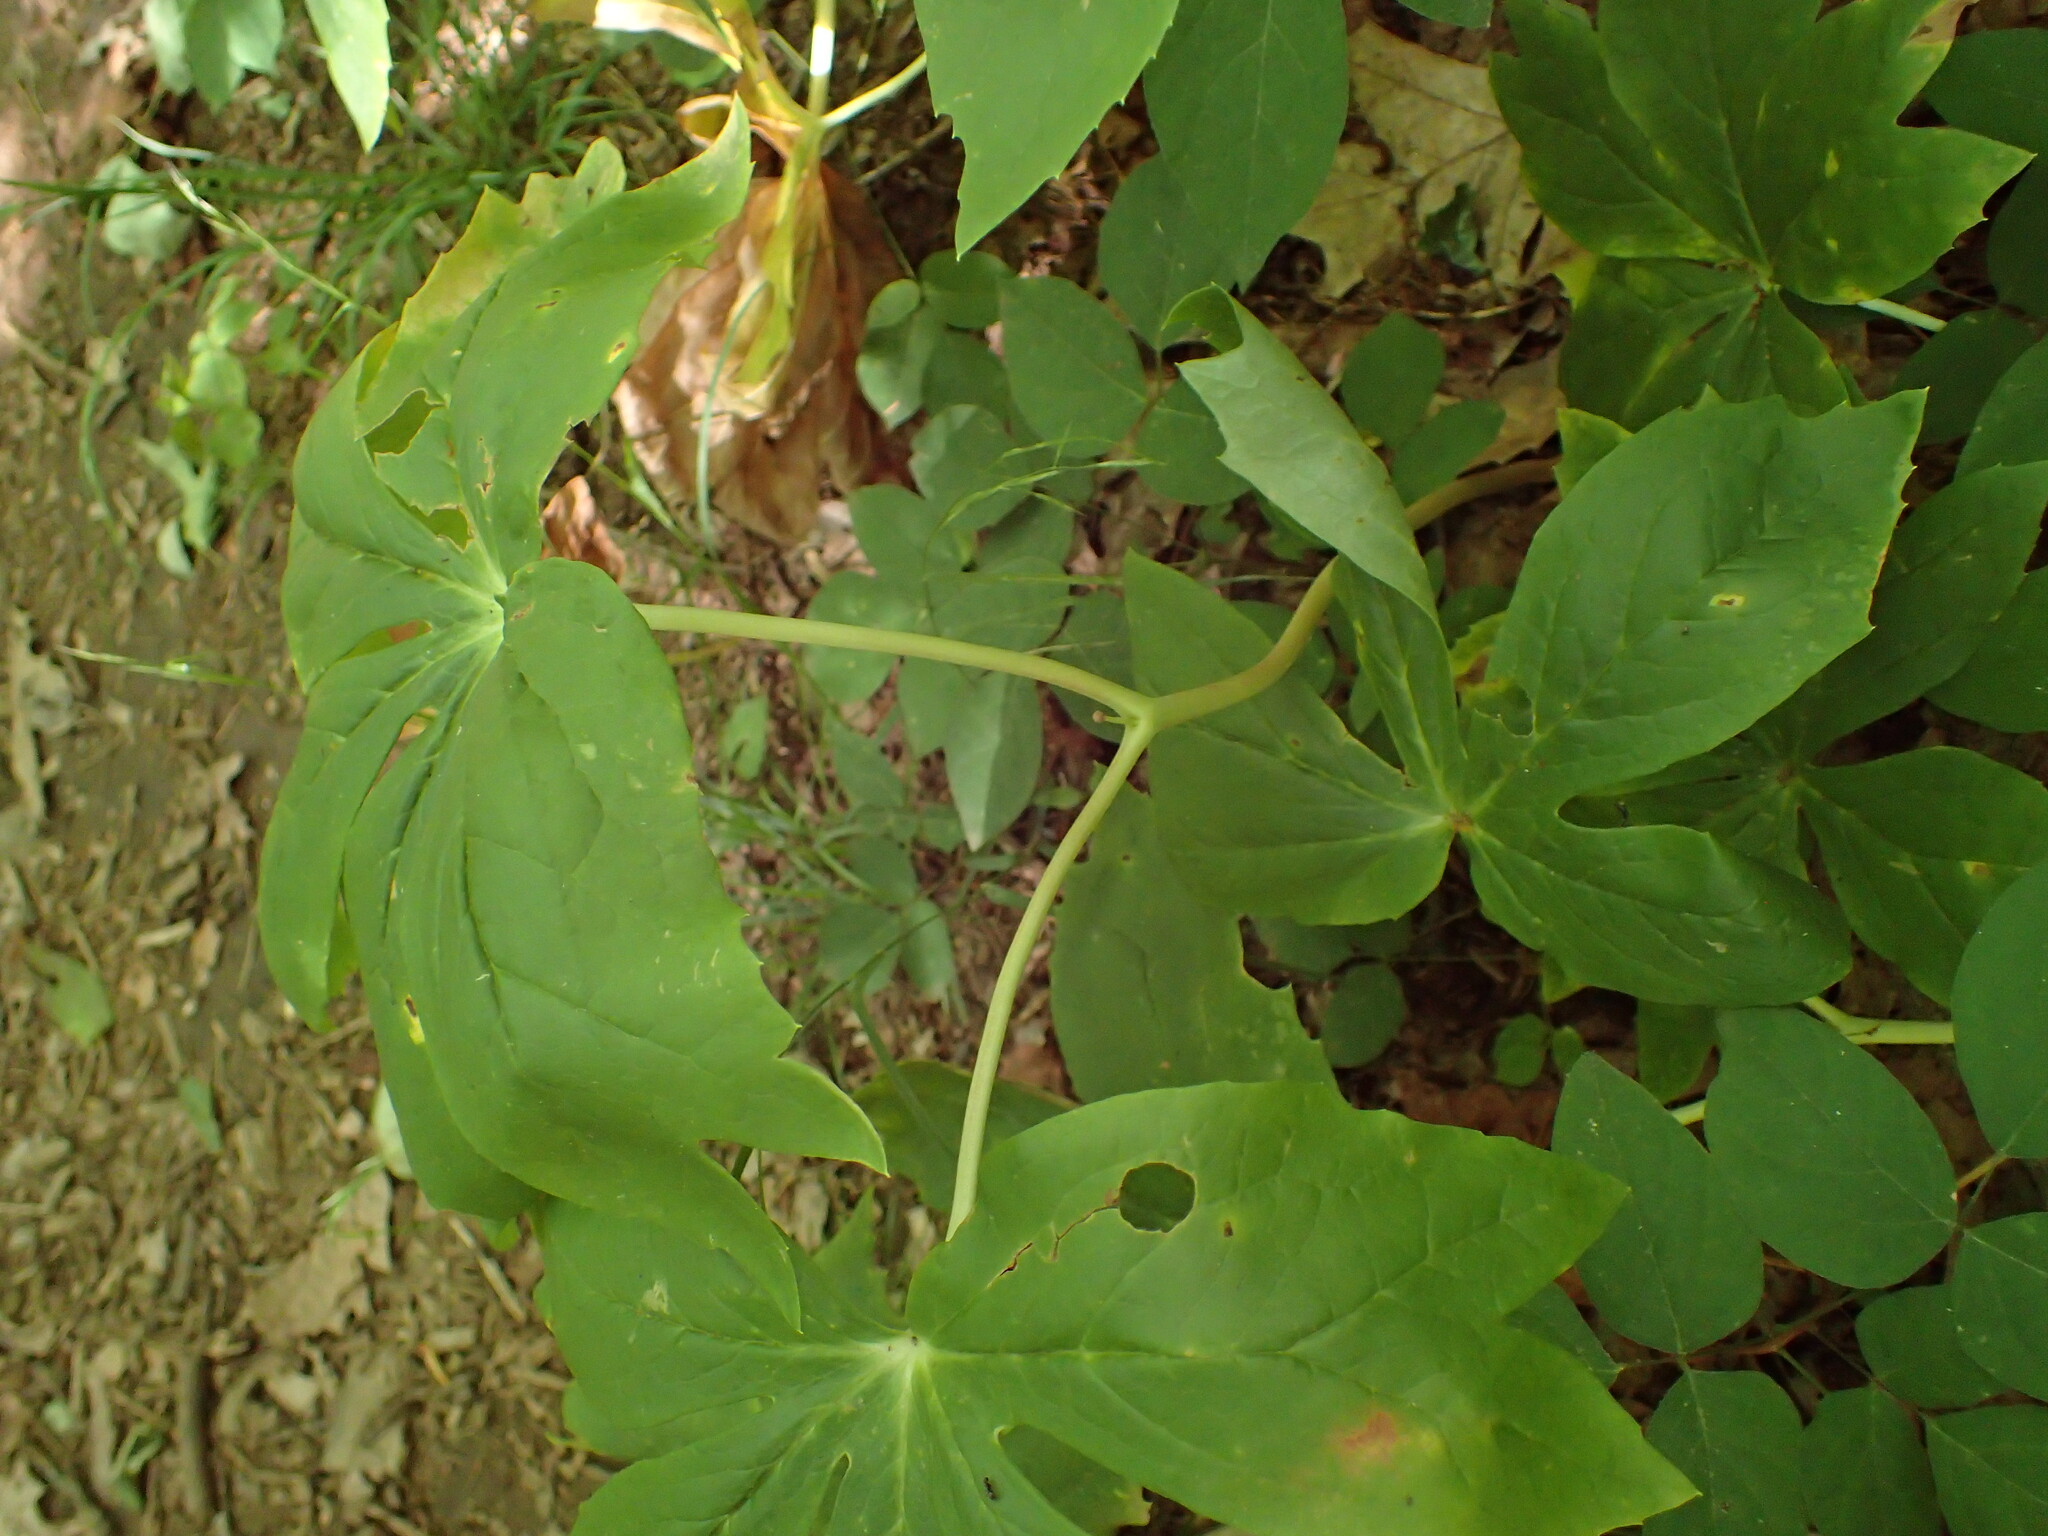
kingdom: Plantae
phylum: Tracheophyta
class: Magnoliopsida
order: Ranunculales
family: Berberidaceae
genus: Podophyllum
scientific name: Podophyllum peltatum
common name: Wild mandrake
